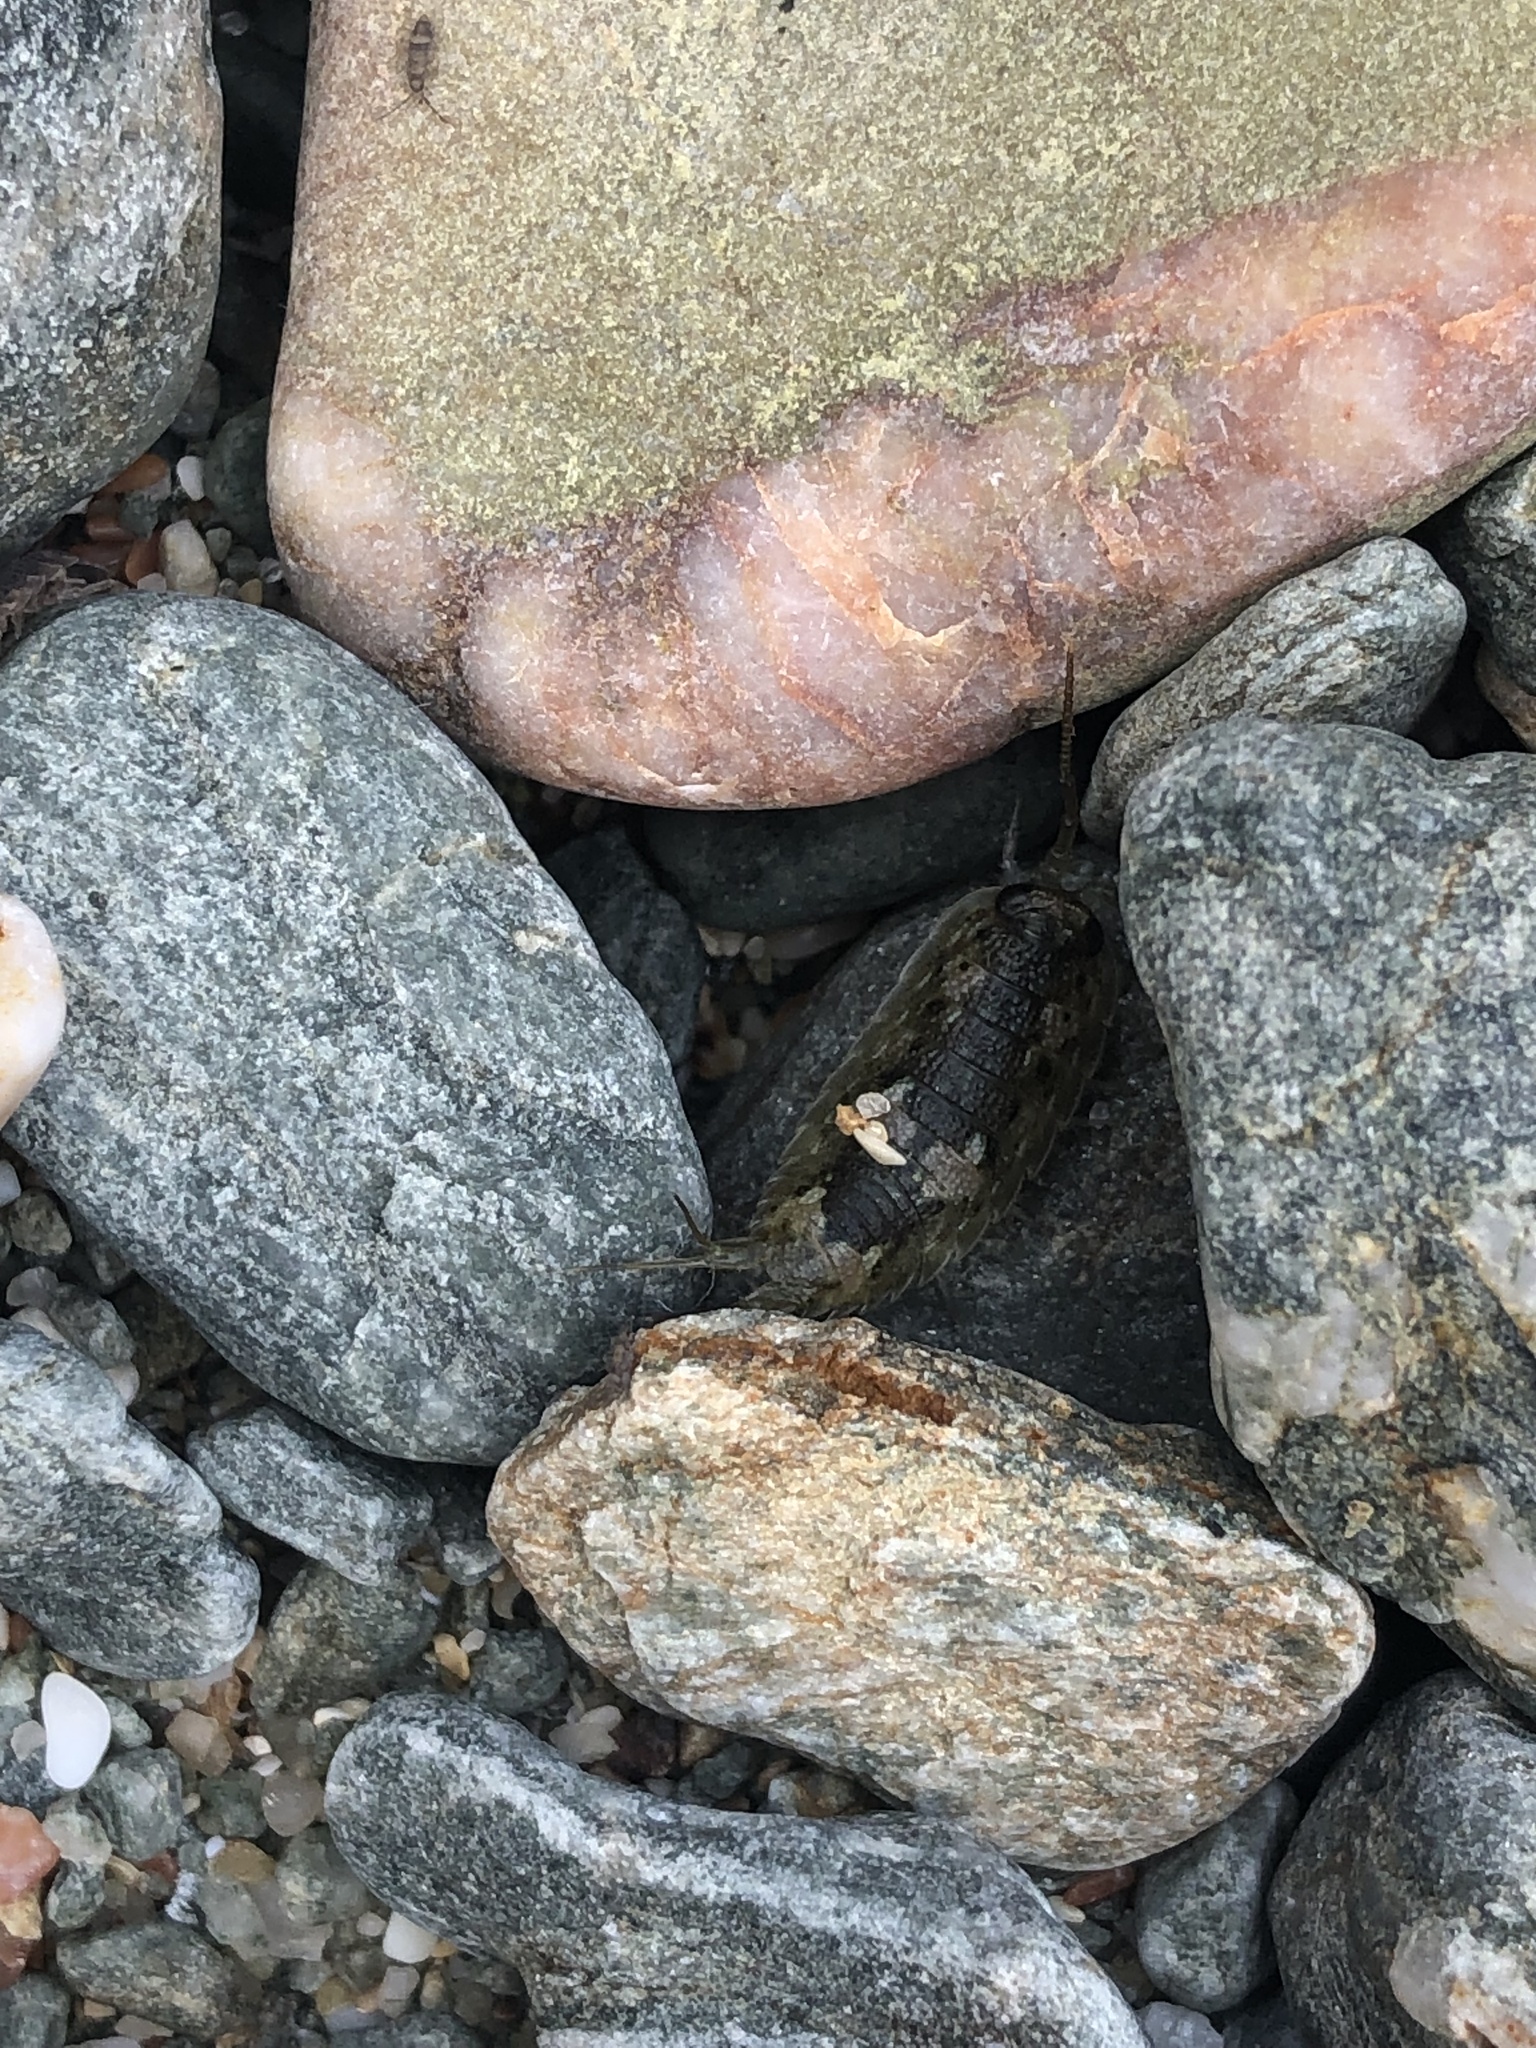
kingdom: Animalia
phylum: Arthropoda
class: Malacostraca
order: Isopoda
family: Ligiidae
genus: Ligia
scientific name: Ligia oceanica
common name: Sea slater
